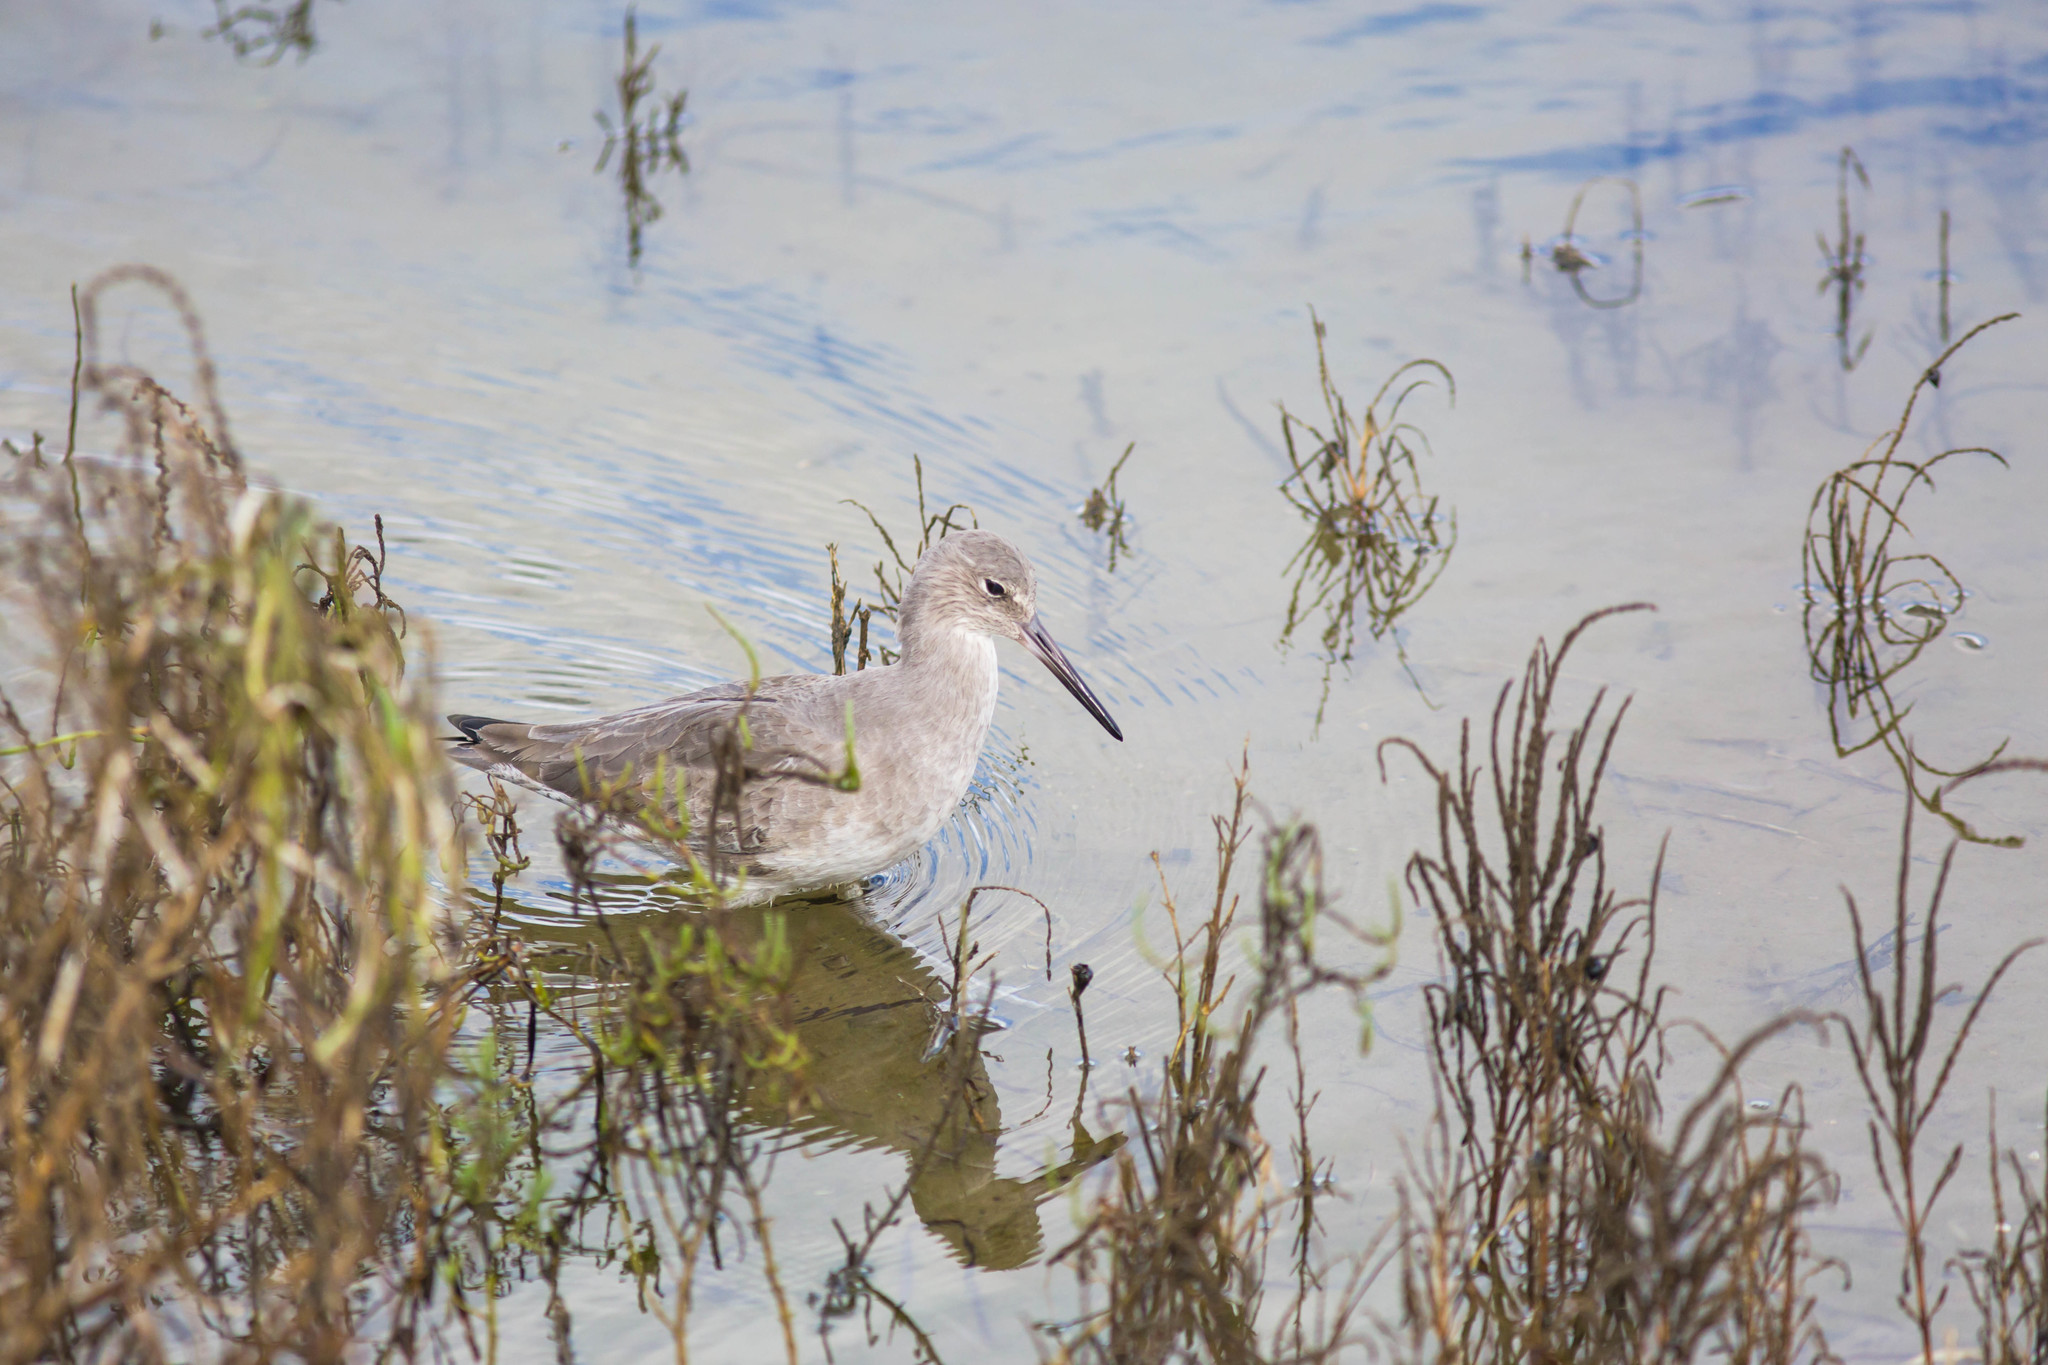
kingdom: Animalia
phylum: Chordata
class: Aves
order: Charadriiformes
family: Scolopacidae
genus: Tringa
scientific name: Tringa semipalmata
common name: Willet
